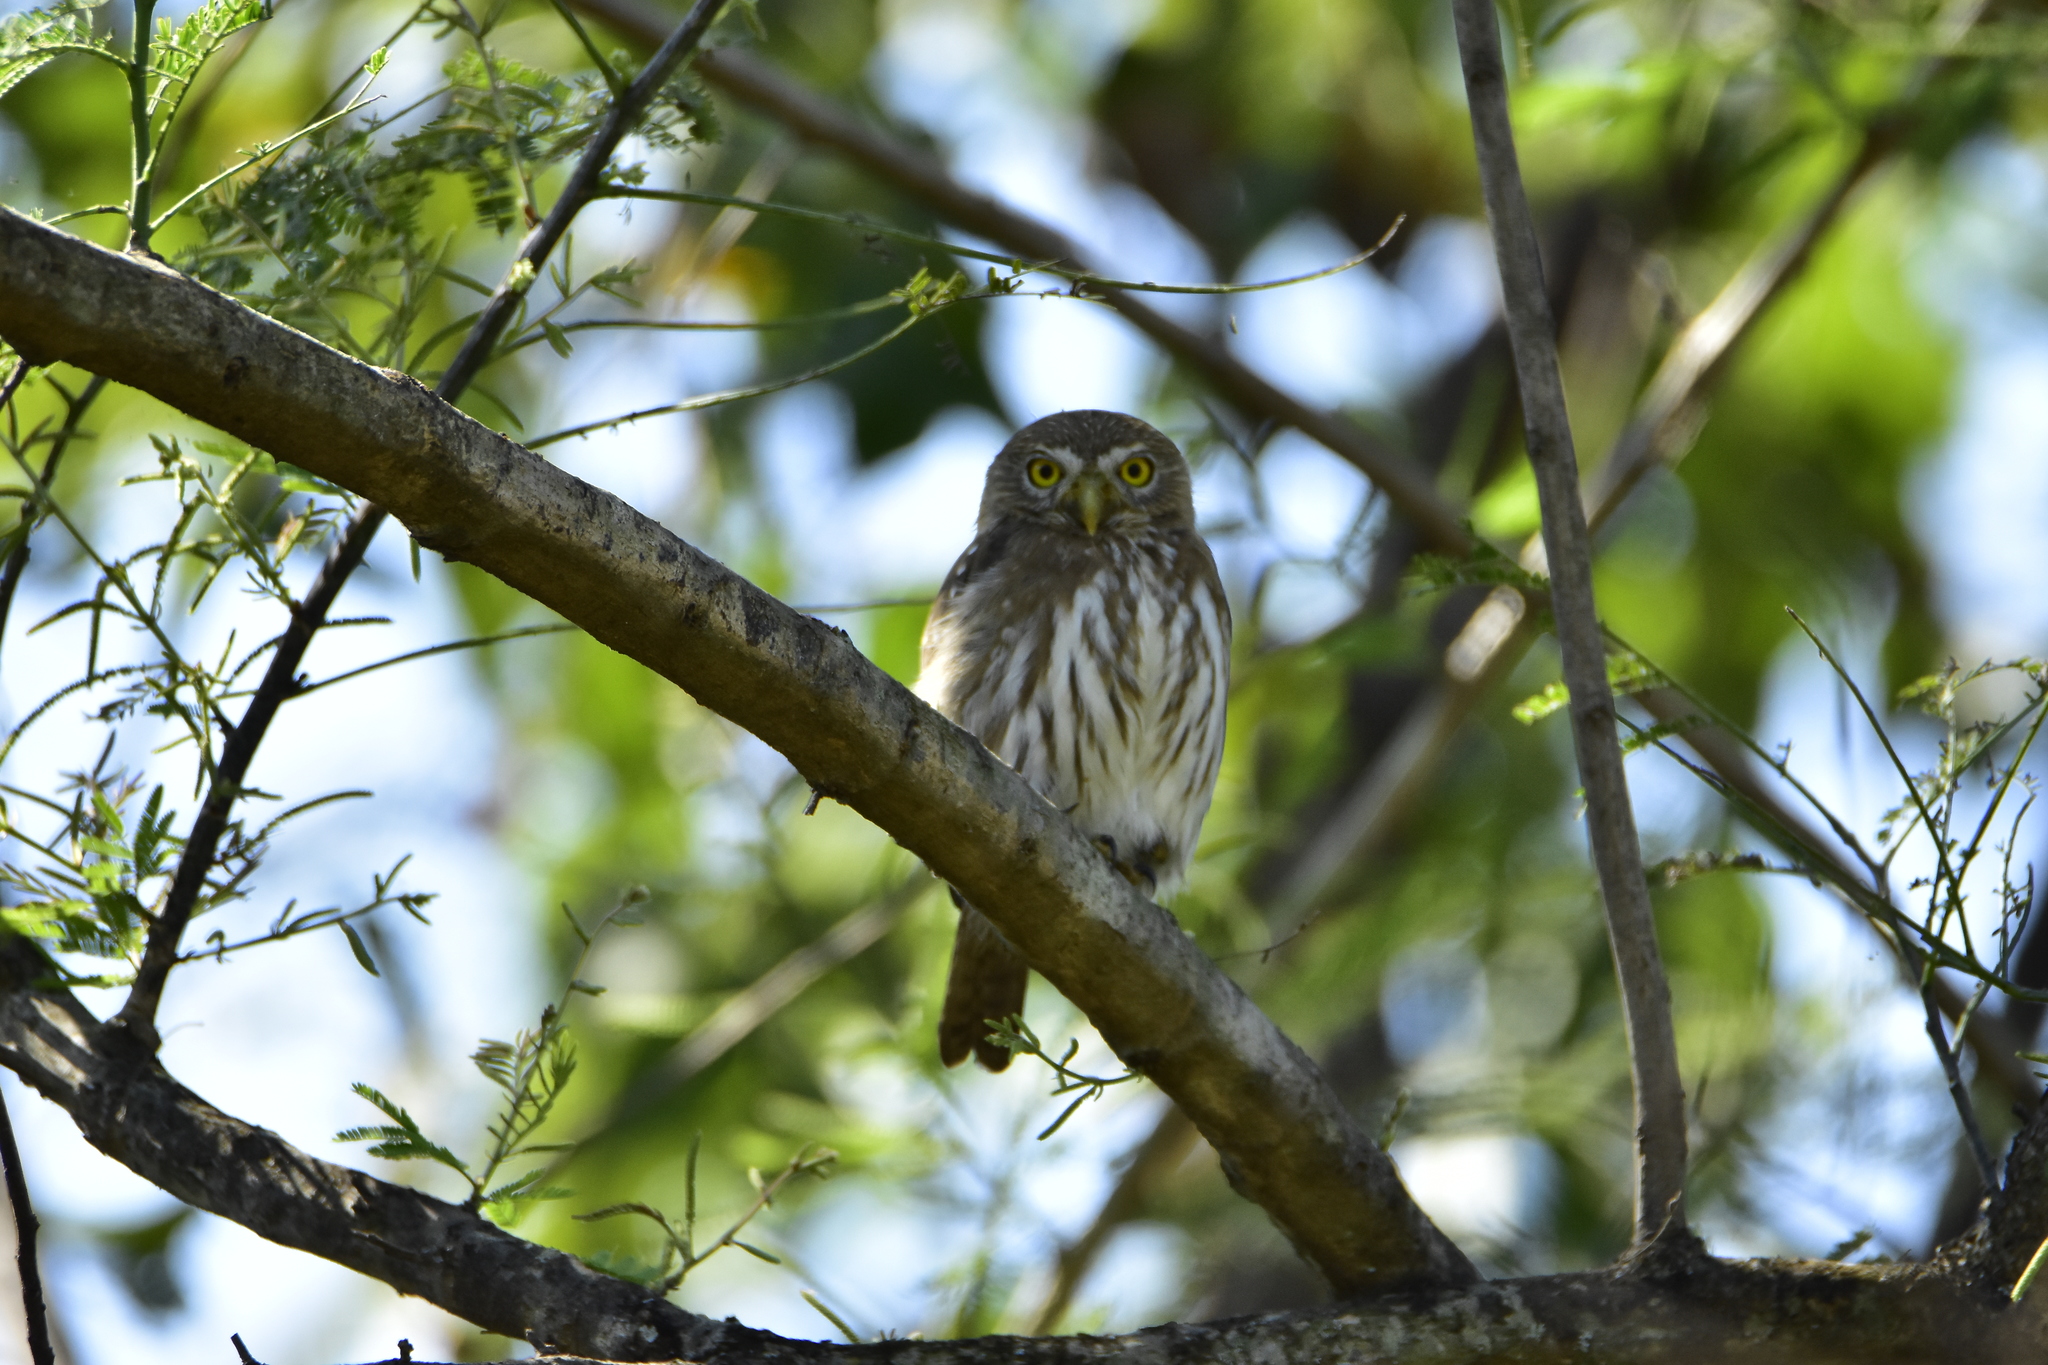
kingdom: Animalia
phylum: Chordata
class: Aves
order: Strigiformes
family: Strigidae
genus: Glaucidium
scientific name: Glaucidium brasilianum
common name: Ferruginous pygmy-owl
